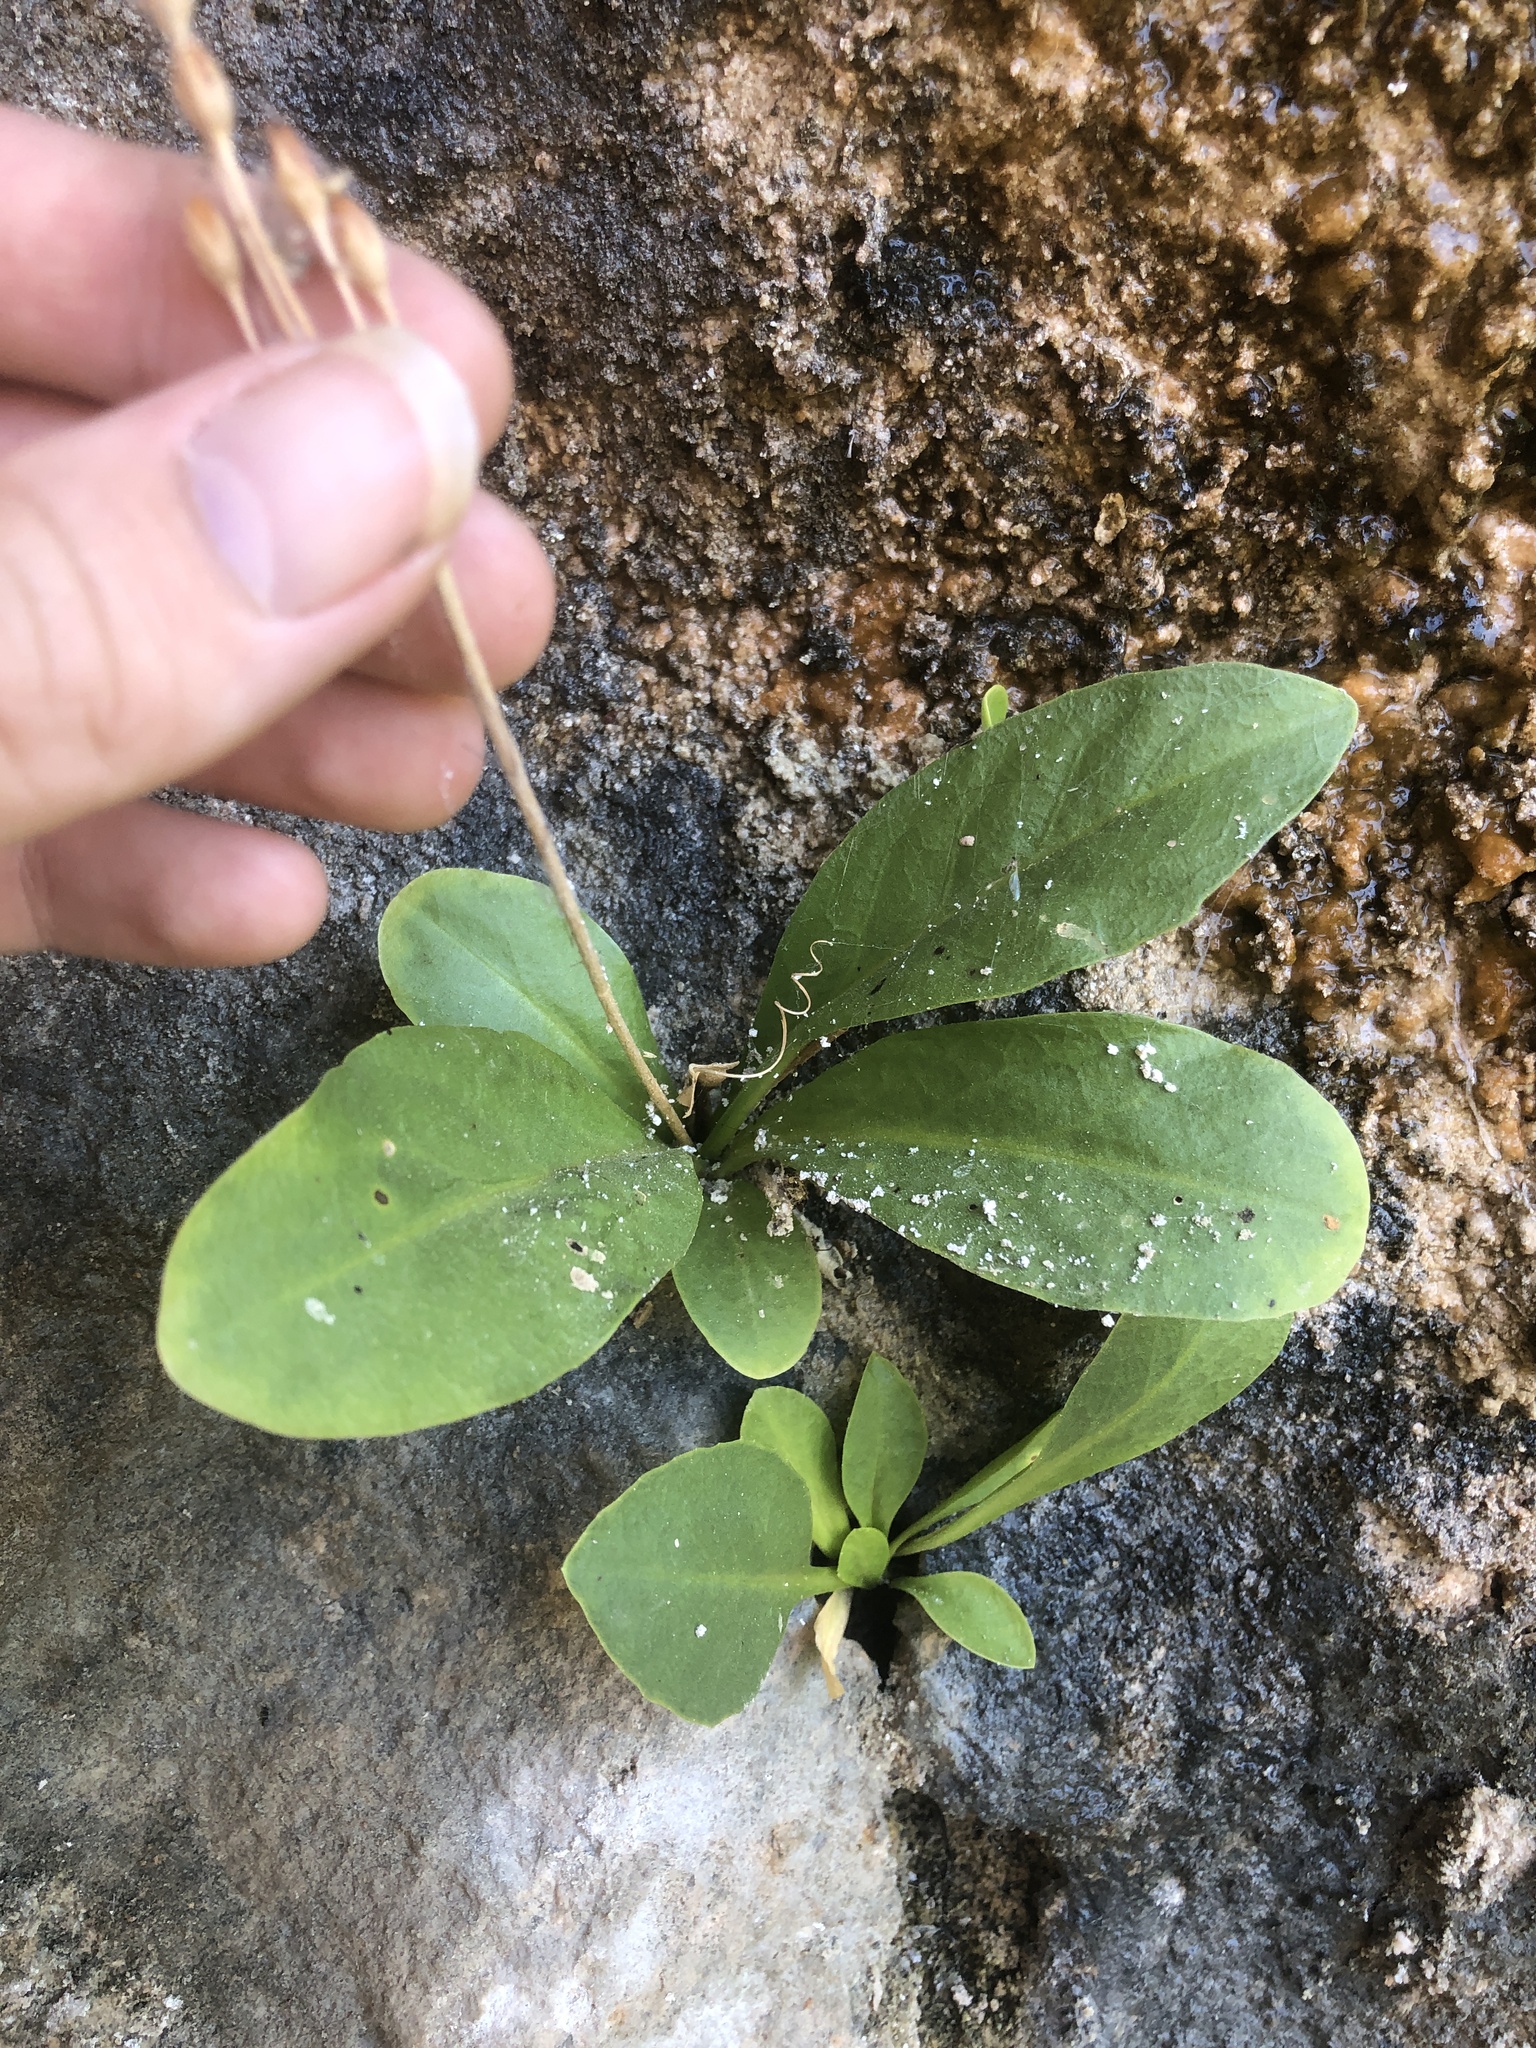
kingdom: Plantae
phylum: Tracheophyta
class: Magnoliopsida
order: Ericales
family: Primulaceae
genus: Dodecatheon
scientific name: Dodecatheon pulchellum
